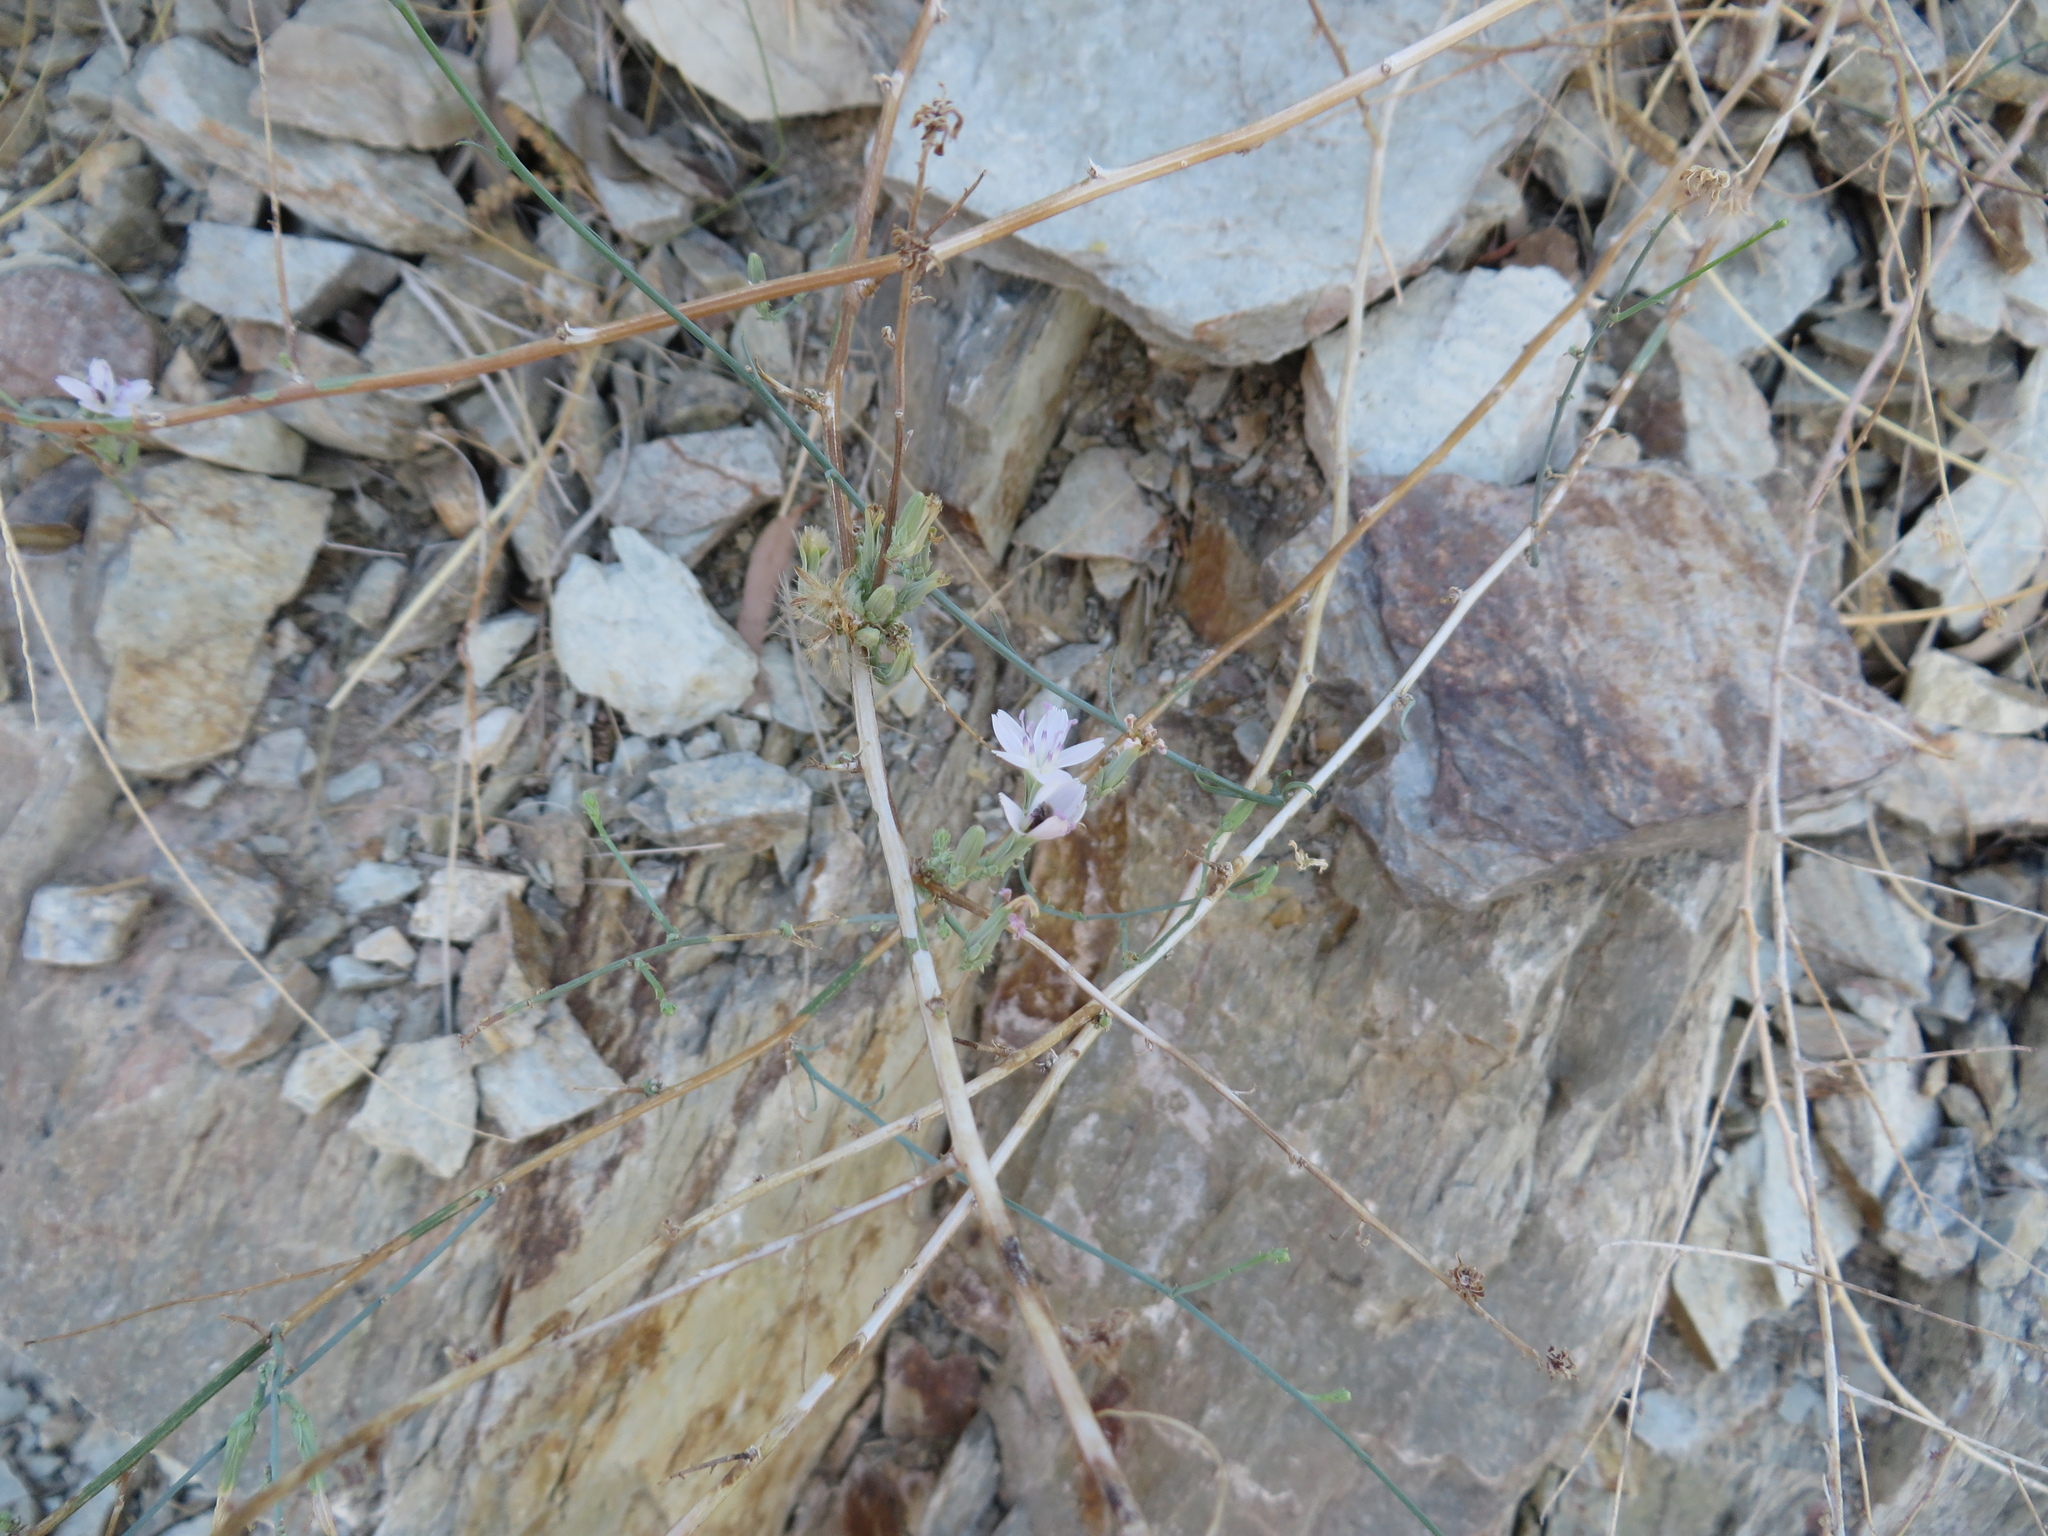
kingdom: Plantae
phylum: Tracheophyta
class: Magnoliopsida
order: Asterales
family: Asteraceae
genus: Stephanomeria
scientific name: Stephanomeria pauciflora
